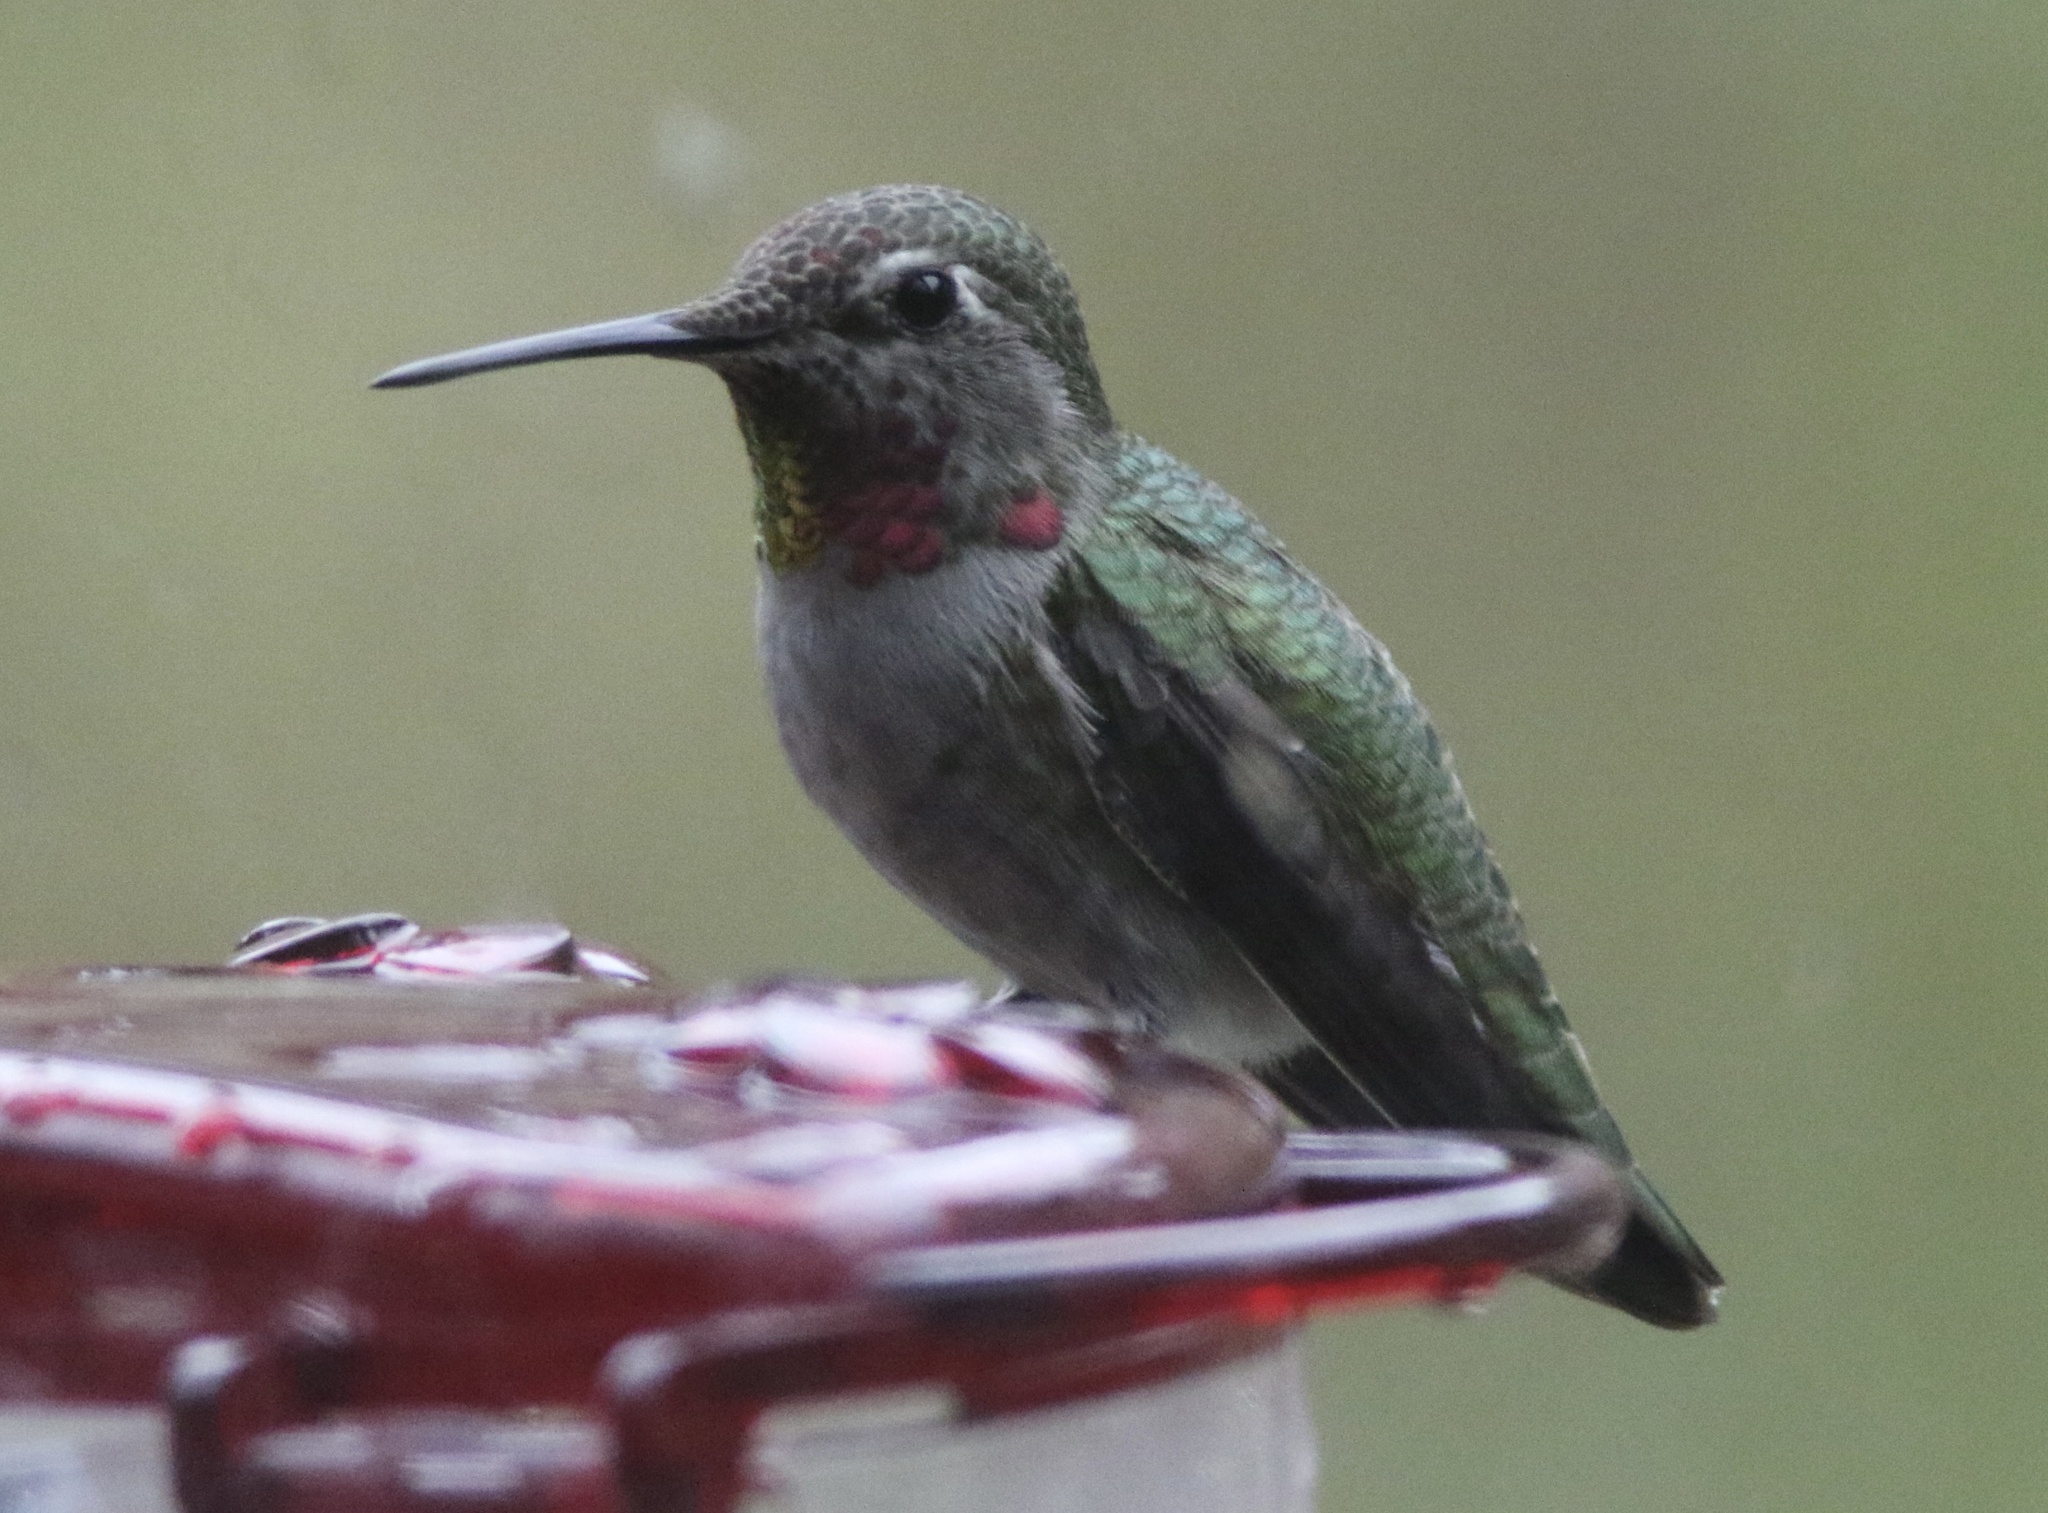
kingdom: Animalia
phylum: Chordata
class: Aves
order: Apodiformes
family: Trochilidae
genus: Calypte
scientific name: Calypte anna
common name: Anna's hummingbird
